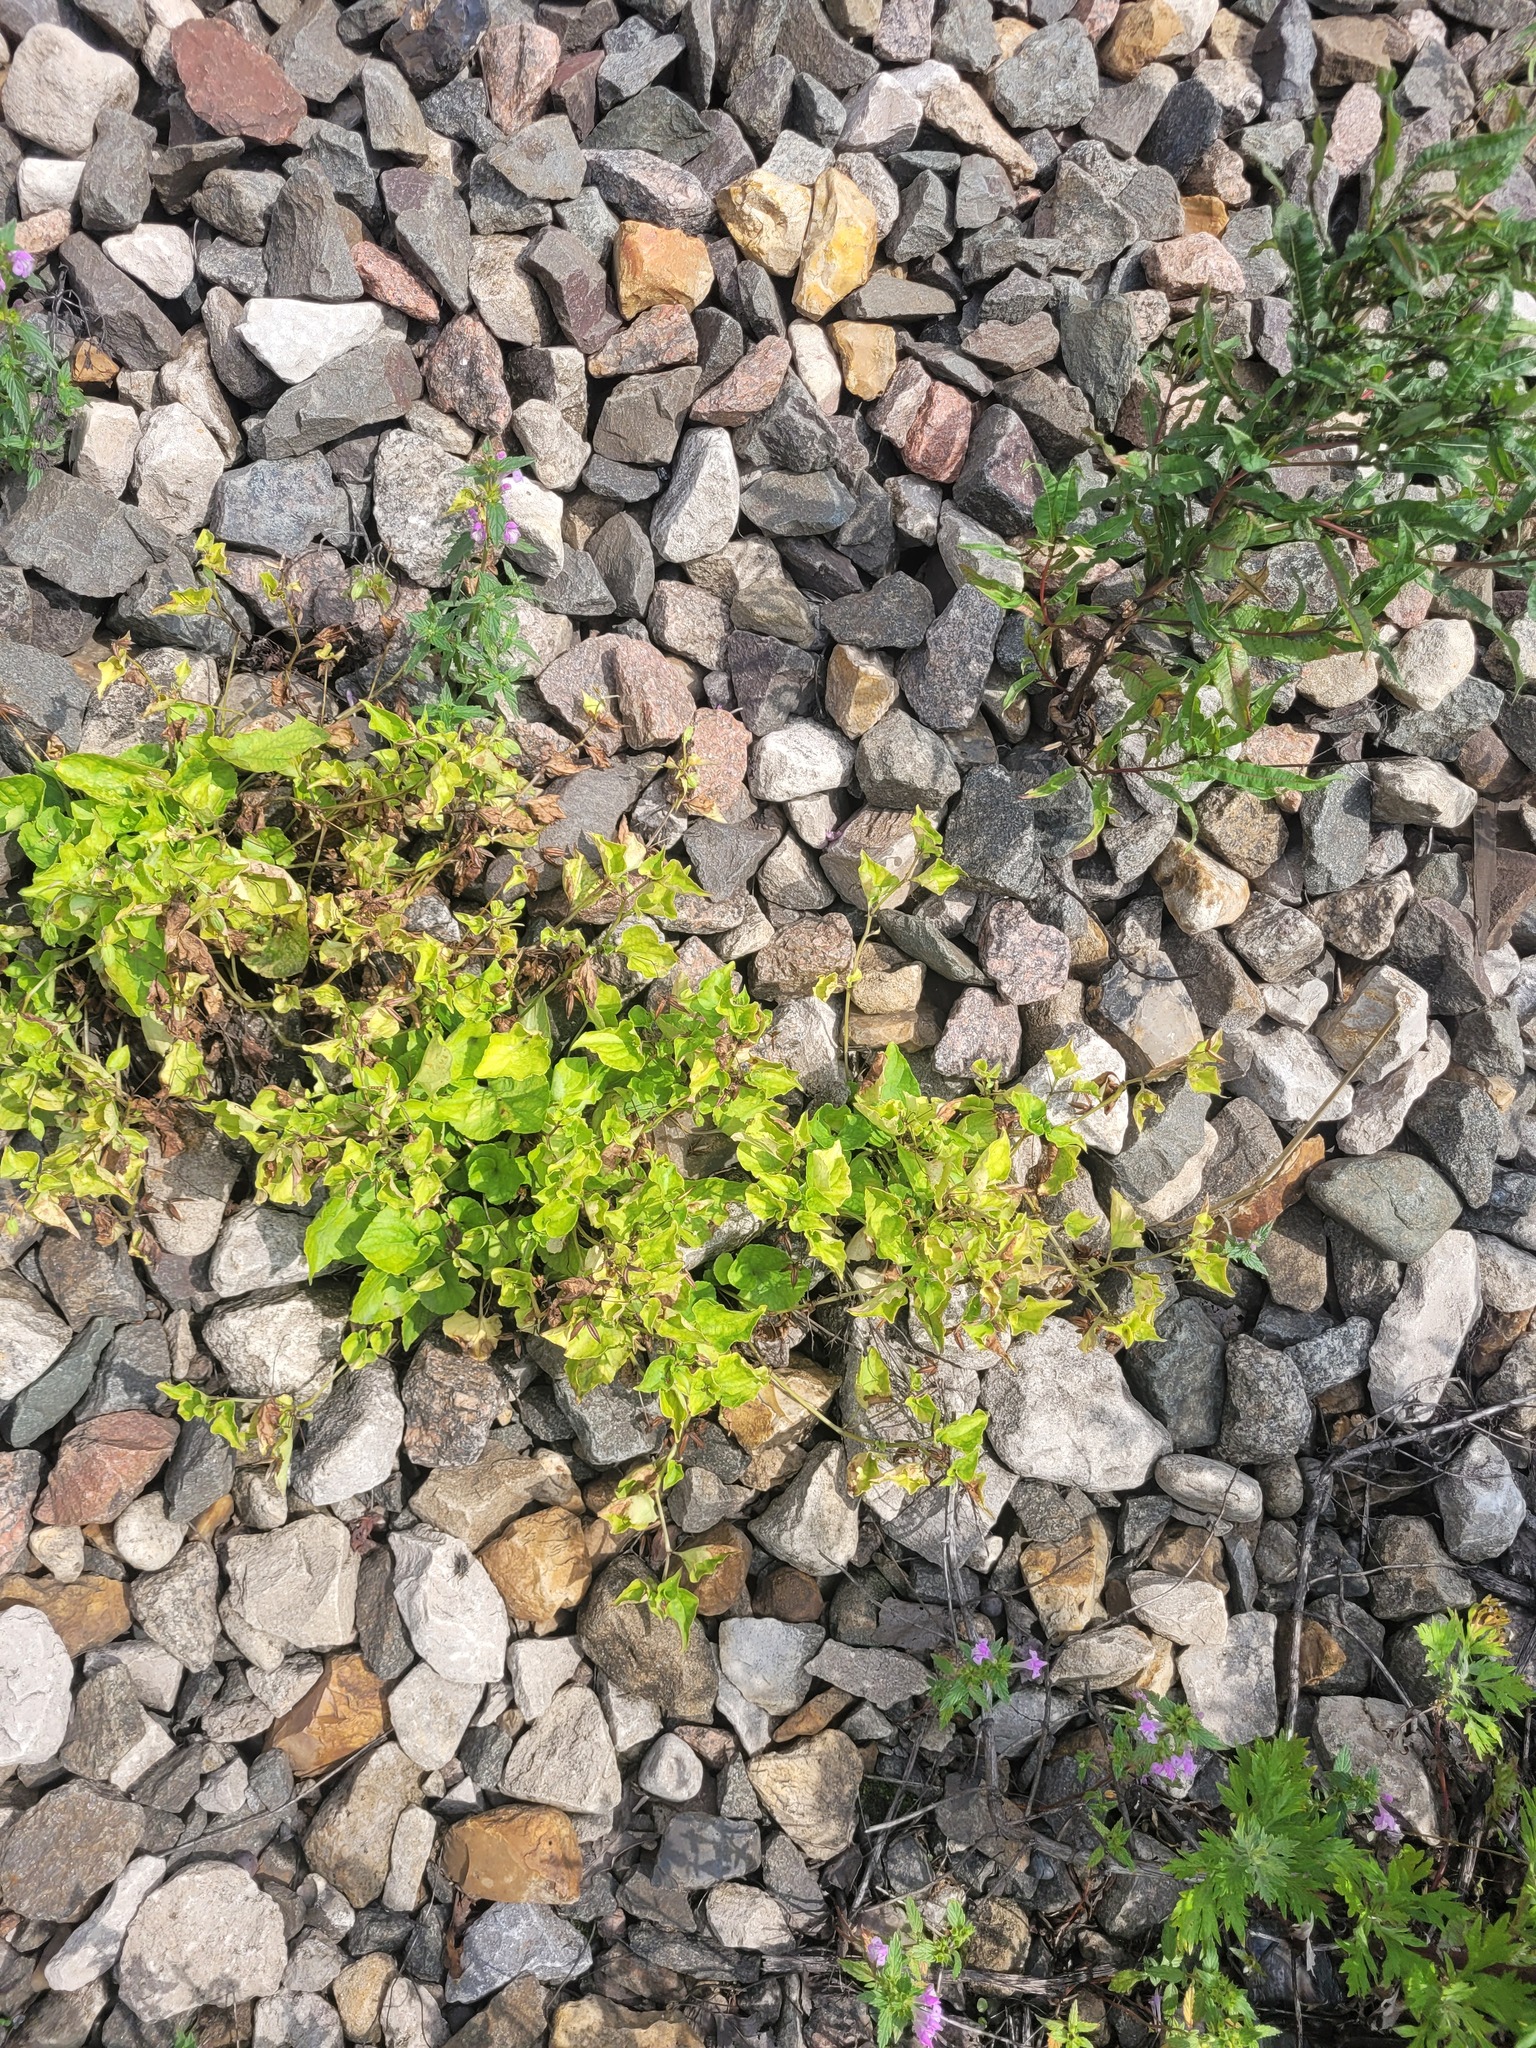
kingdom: Plantae
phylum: Tracheophyta
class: Magnoliopsida
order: Malpighiales
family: Violaceae
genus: Viola
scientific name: Viola riviniana
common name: Common dog-violet
